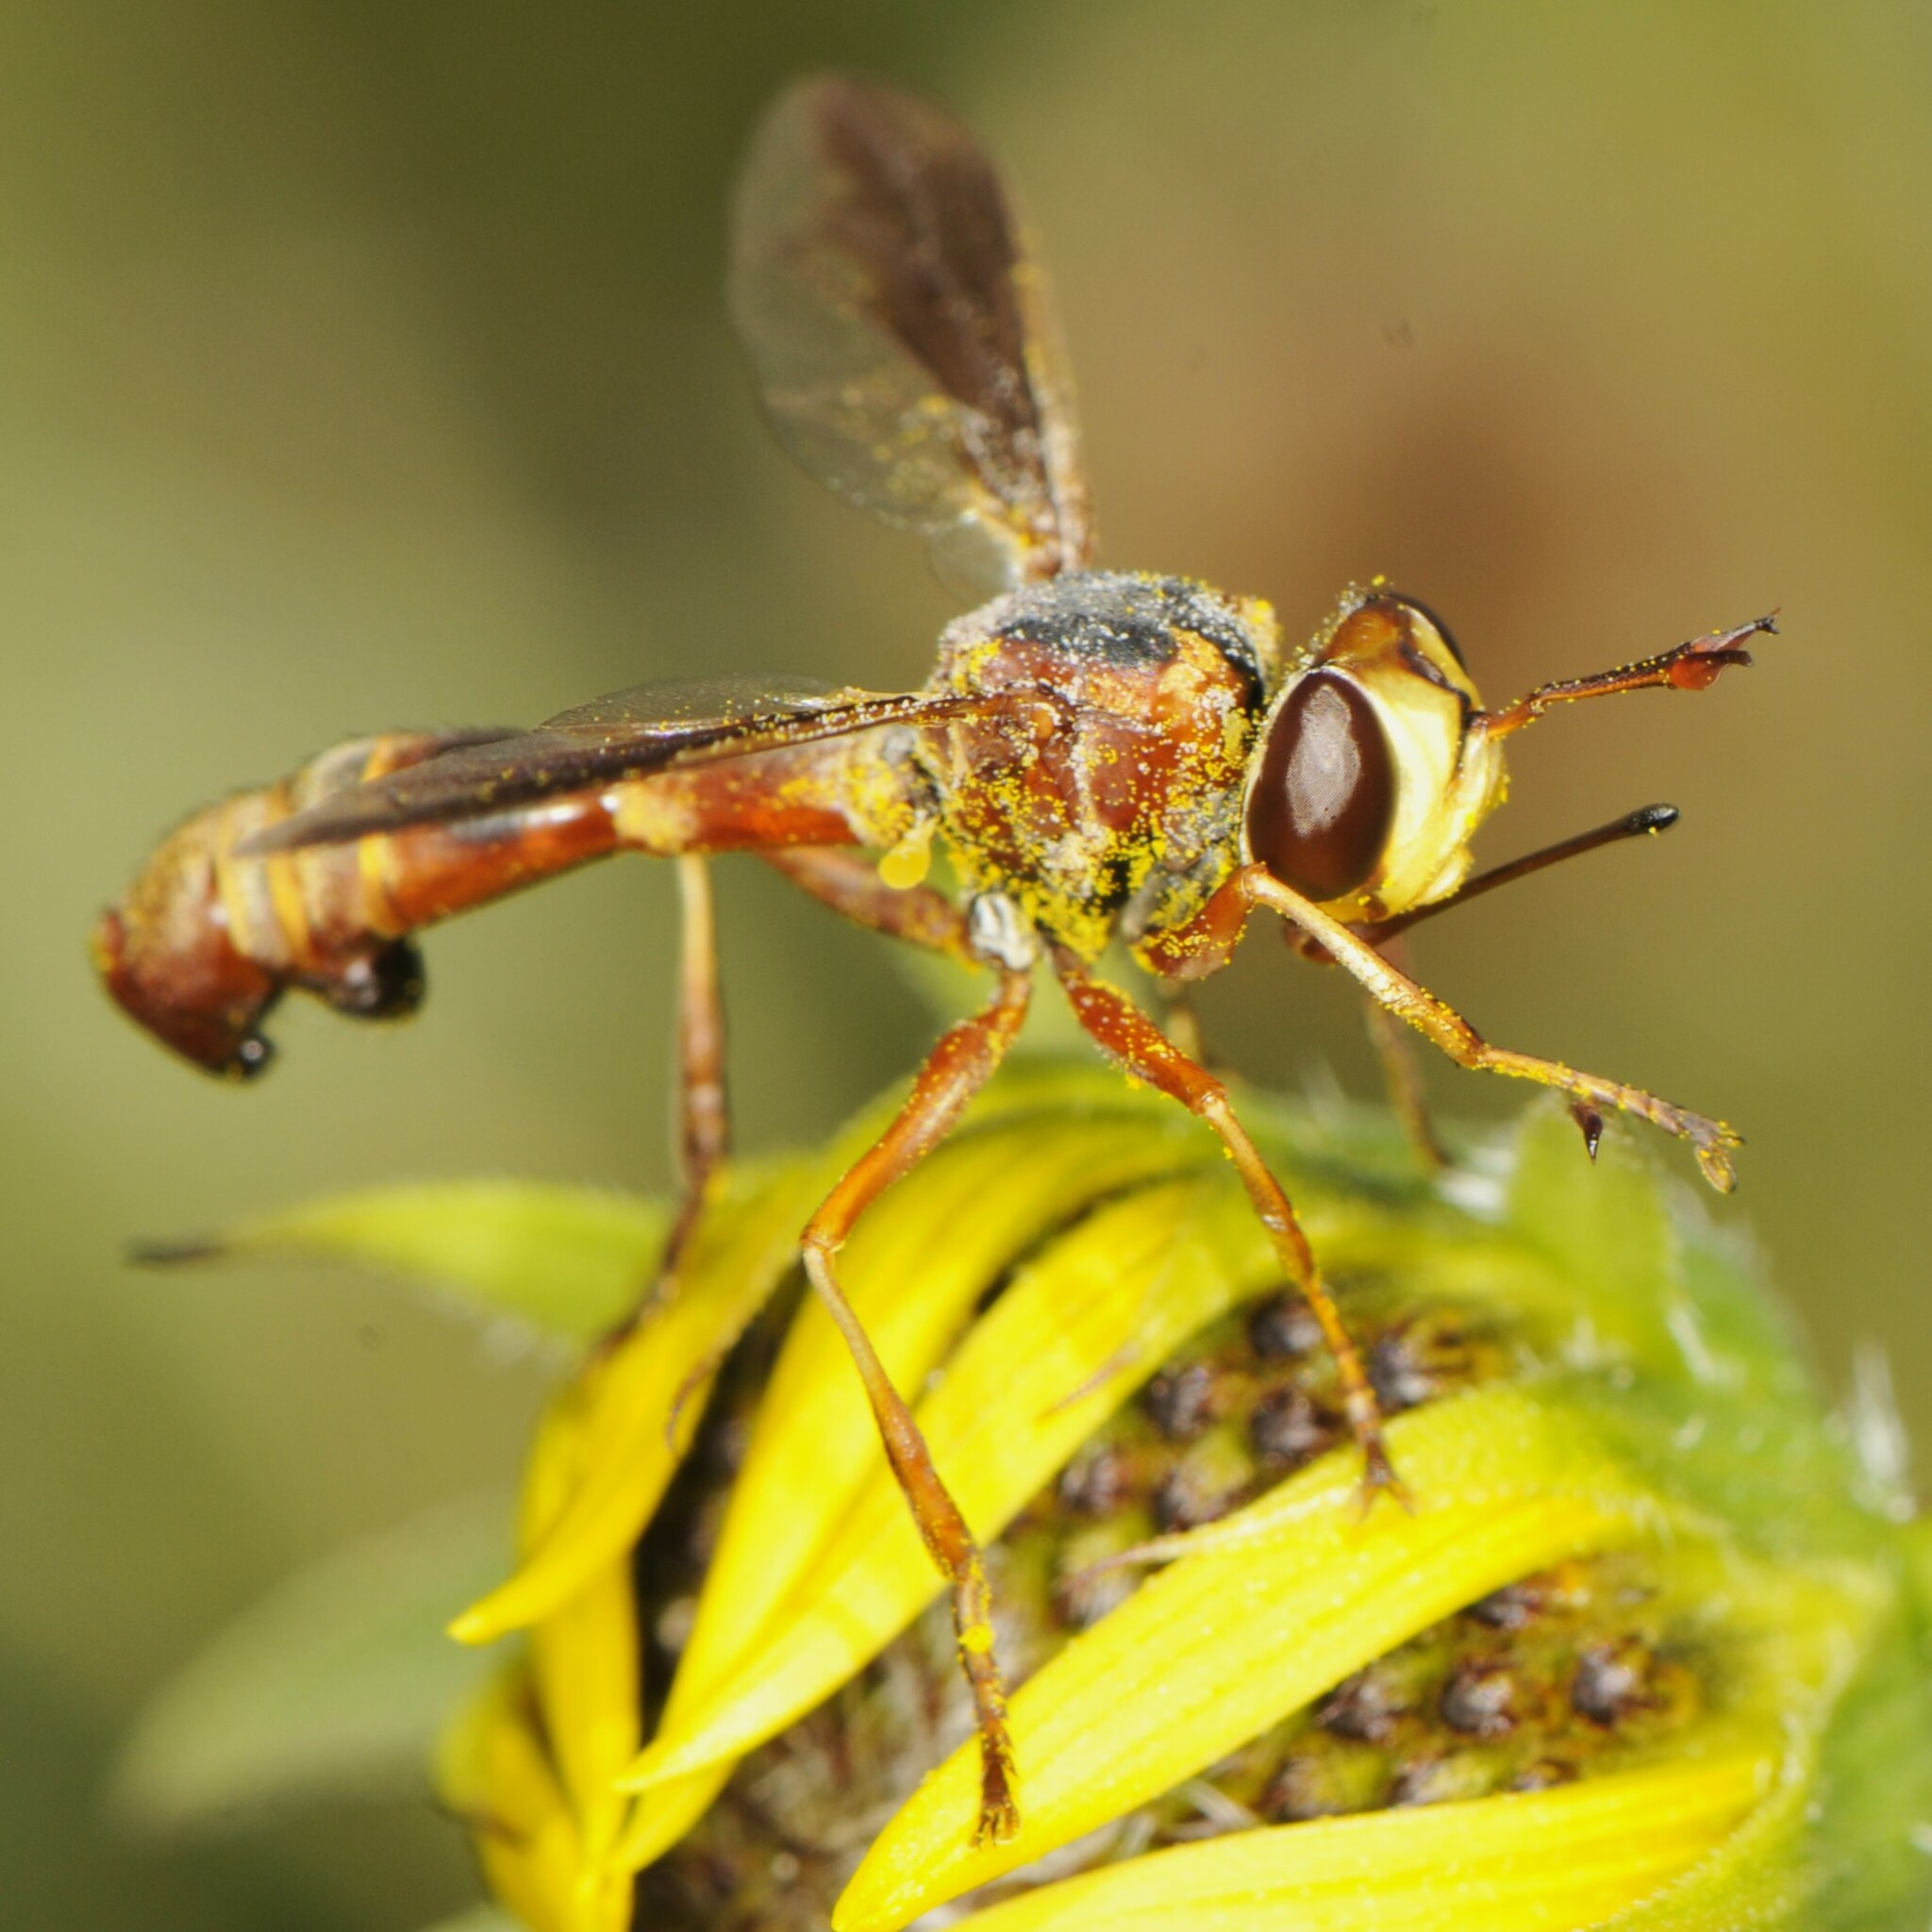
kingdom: Animalia
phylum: Arthropoda
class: Insecta
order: Diptera
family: Conopidae
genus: Physocephala
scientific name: Physocephala texana
